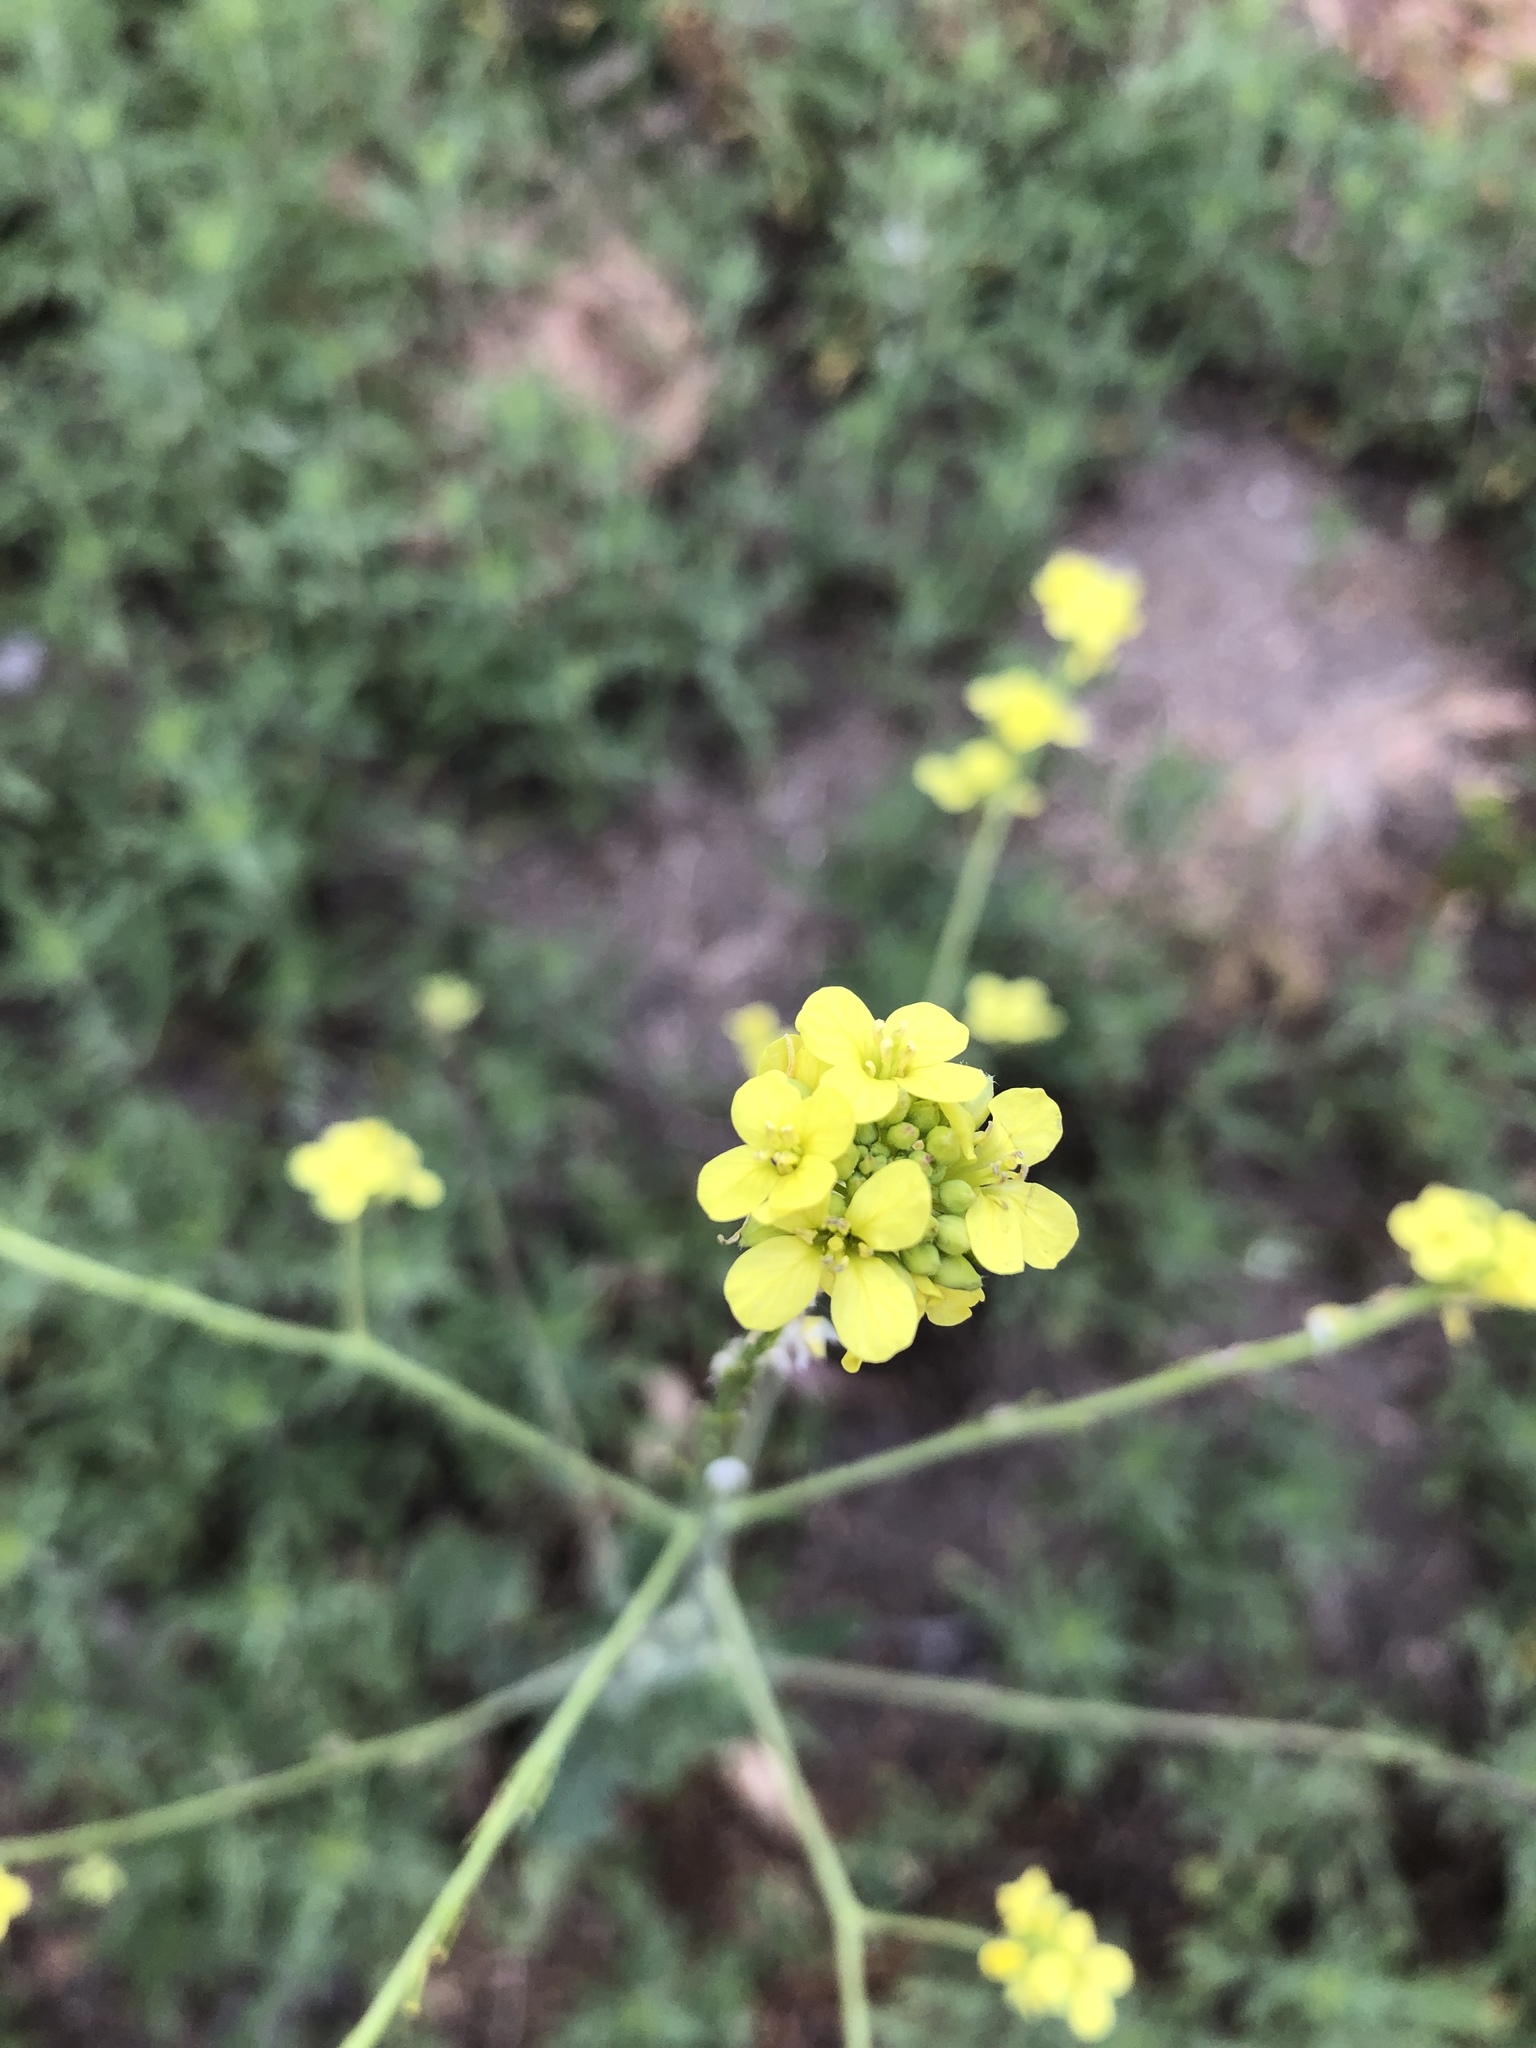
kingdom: Plantae
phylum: Tracheophyta
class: Magnoliopsida
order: Brassicales
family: Brassicaceae
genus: Hirschfeldia
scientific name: Hirschfeldia incana
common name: Hoary mustard
